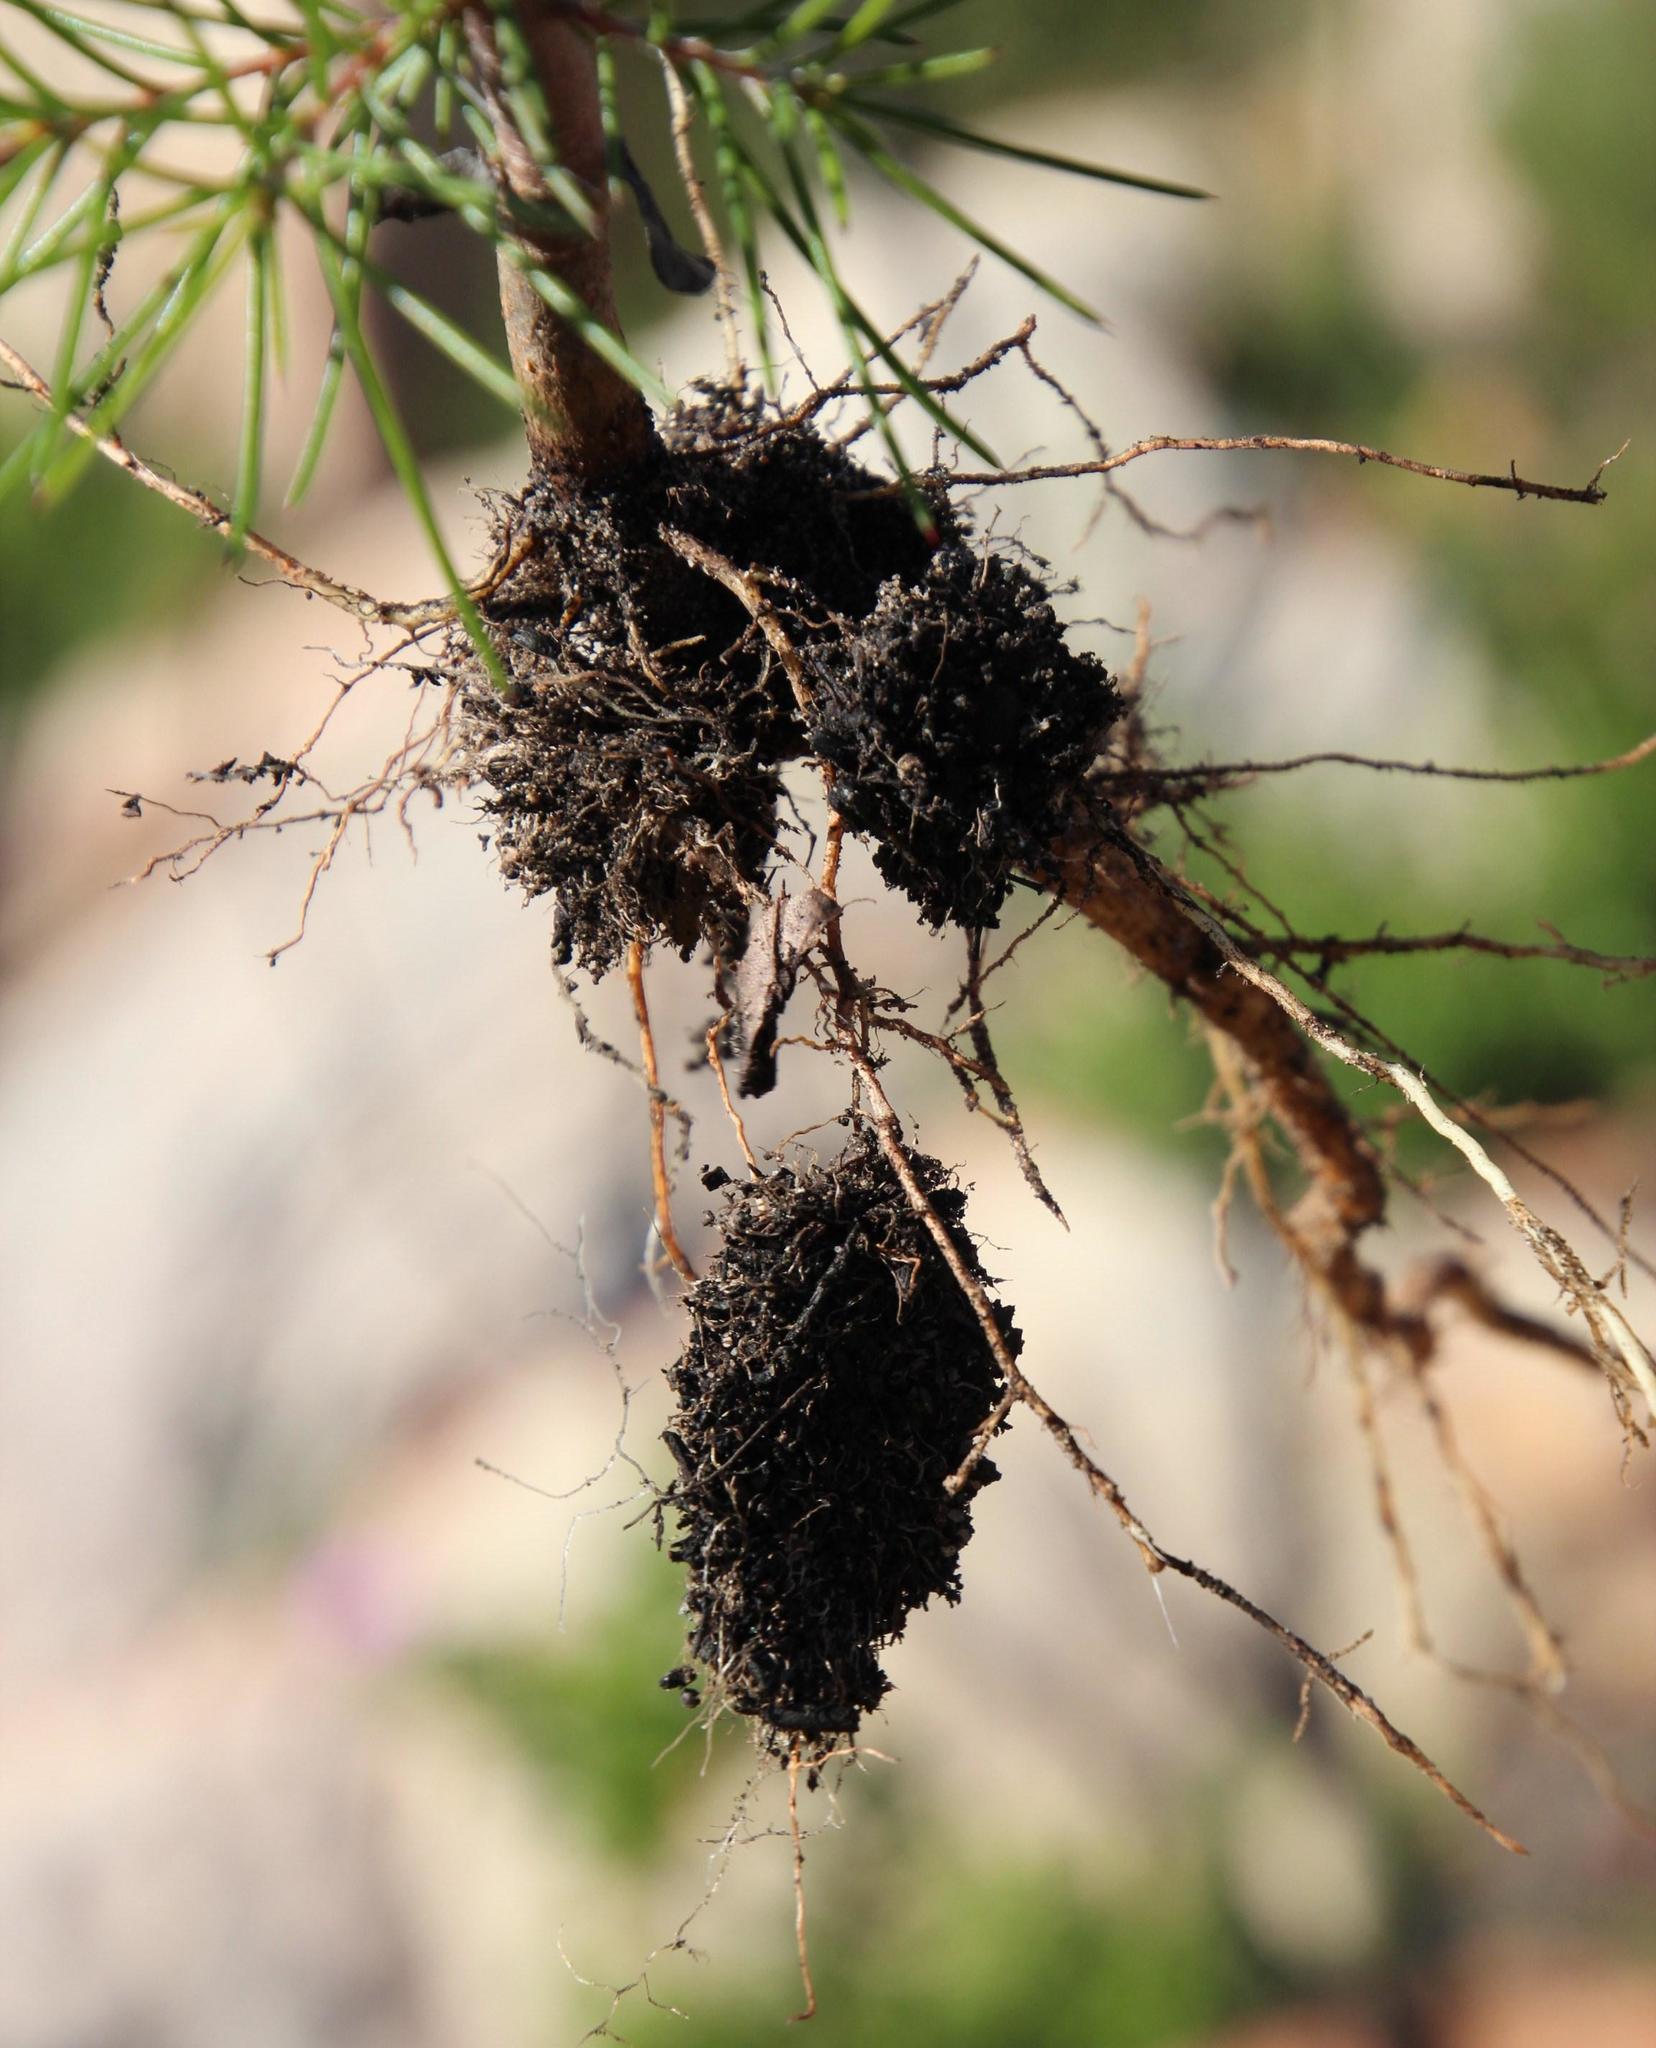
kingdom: Plantae
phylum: Tracheophyta
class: Magnoliopsida
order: Proteales
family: Proteaceae
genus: Hakea
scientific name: Hakea sericea
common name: Needle bush
